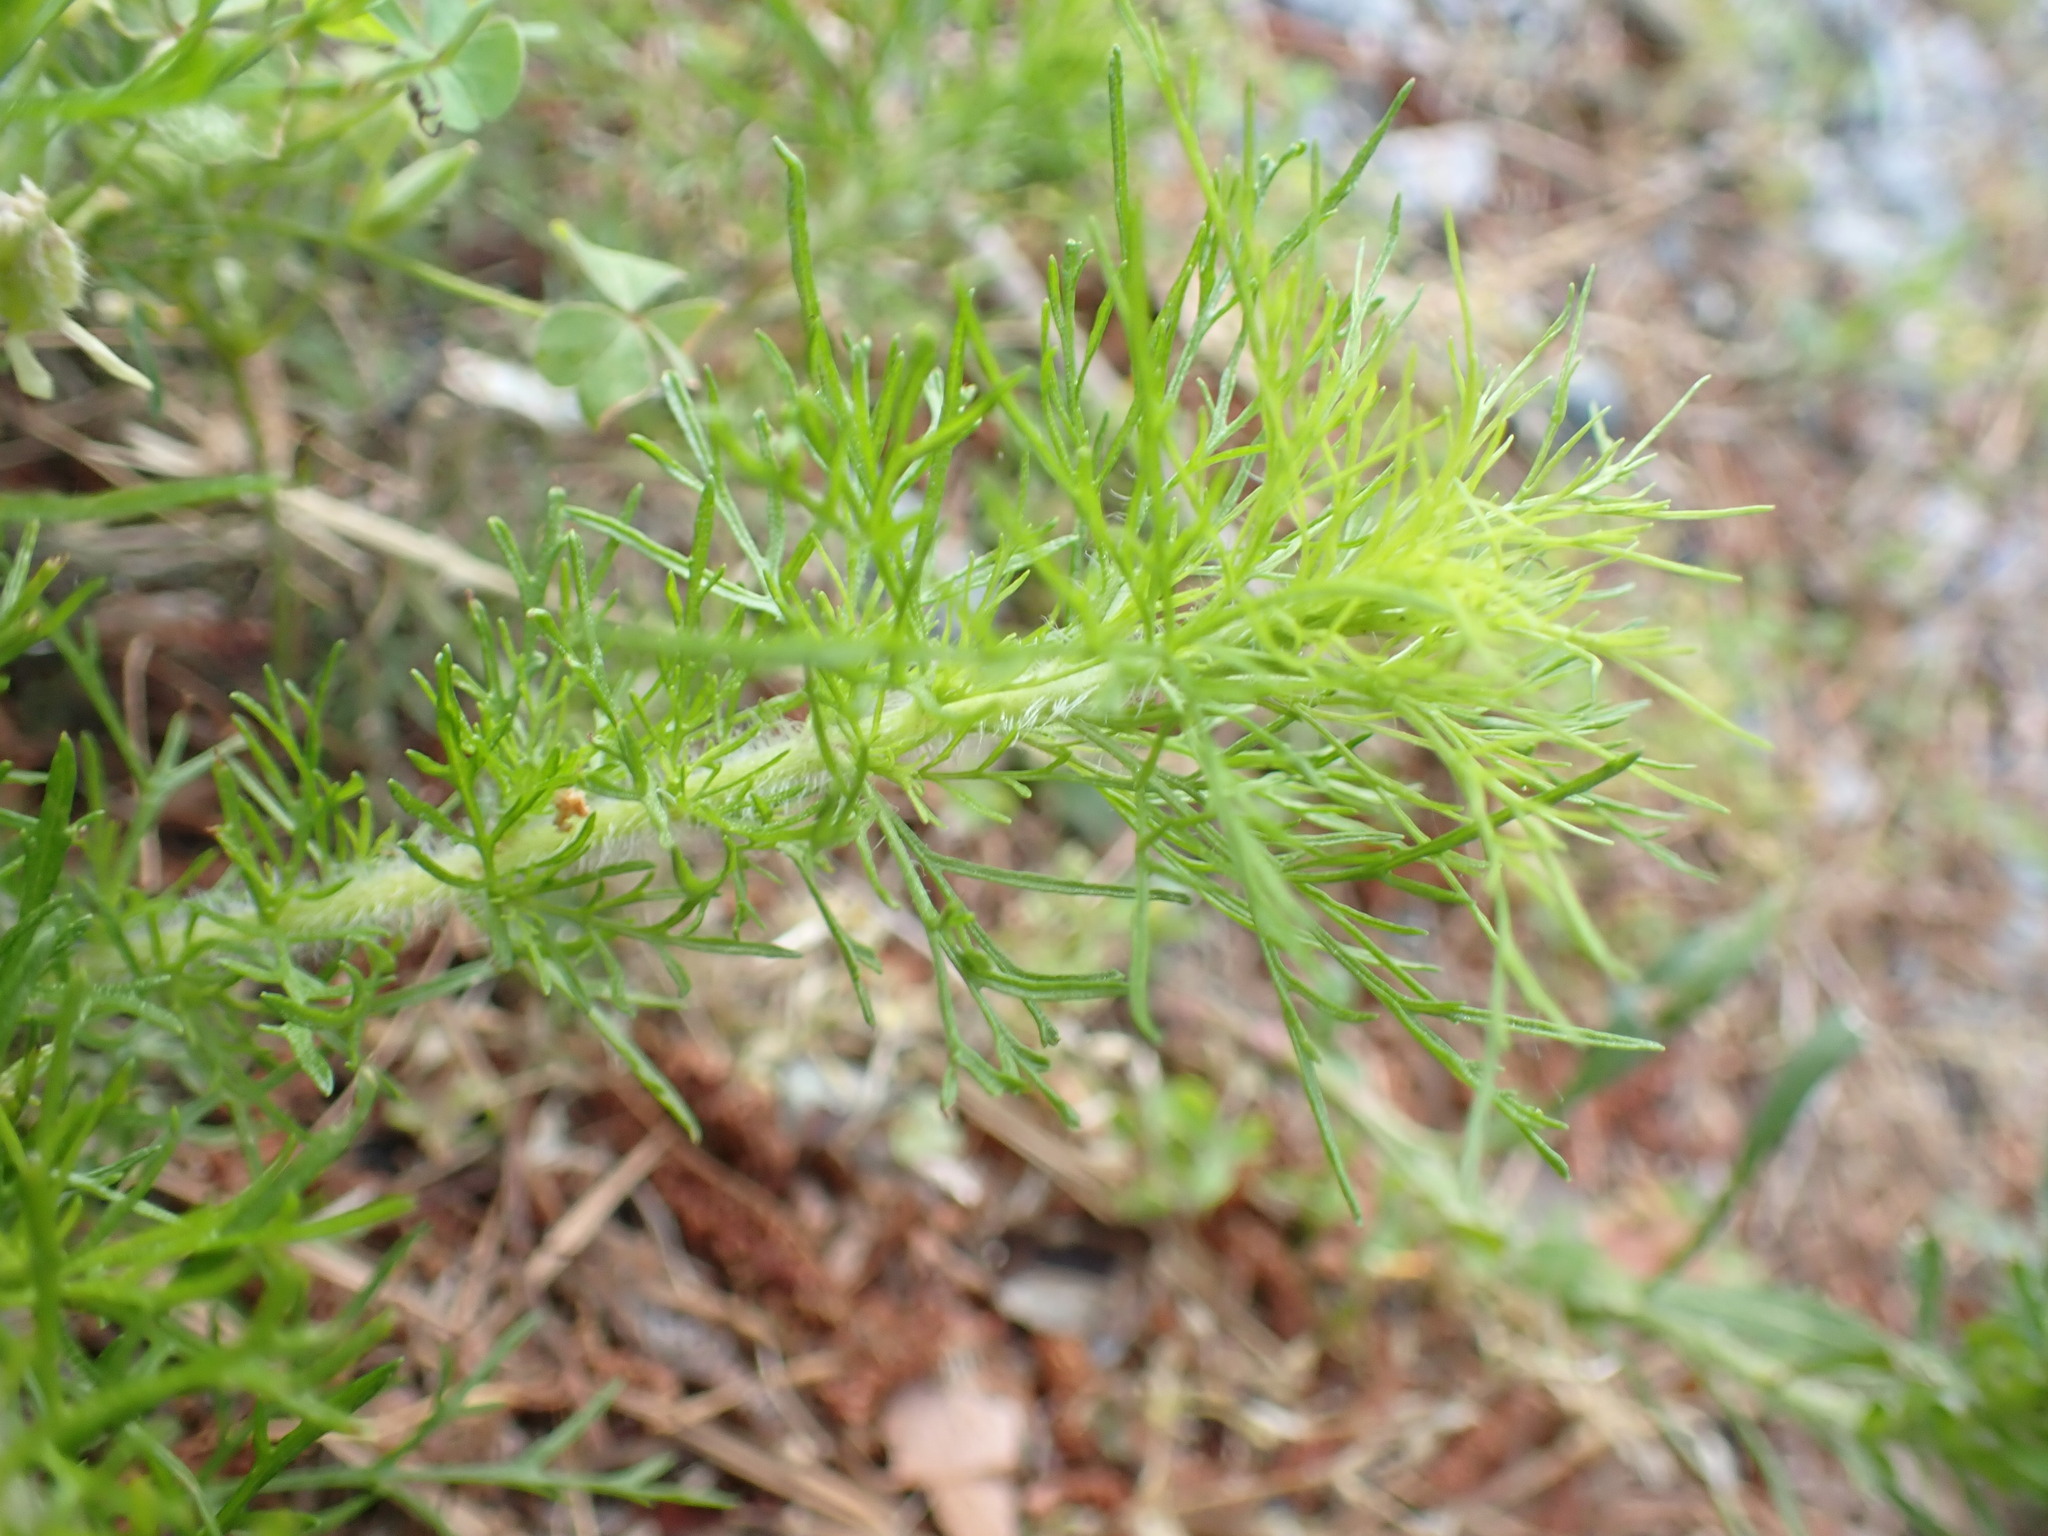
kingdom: Plantae
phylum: Tracheophyta
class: Magnoliopsida
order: Asterales
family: Asteraceae
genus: Eupatorium
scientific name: Eupatorium capillifolium
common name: Dog-fennel
